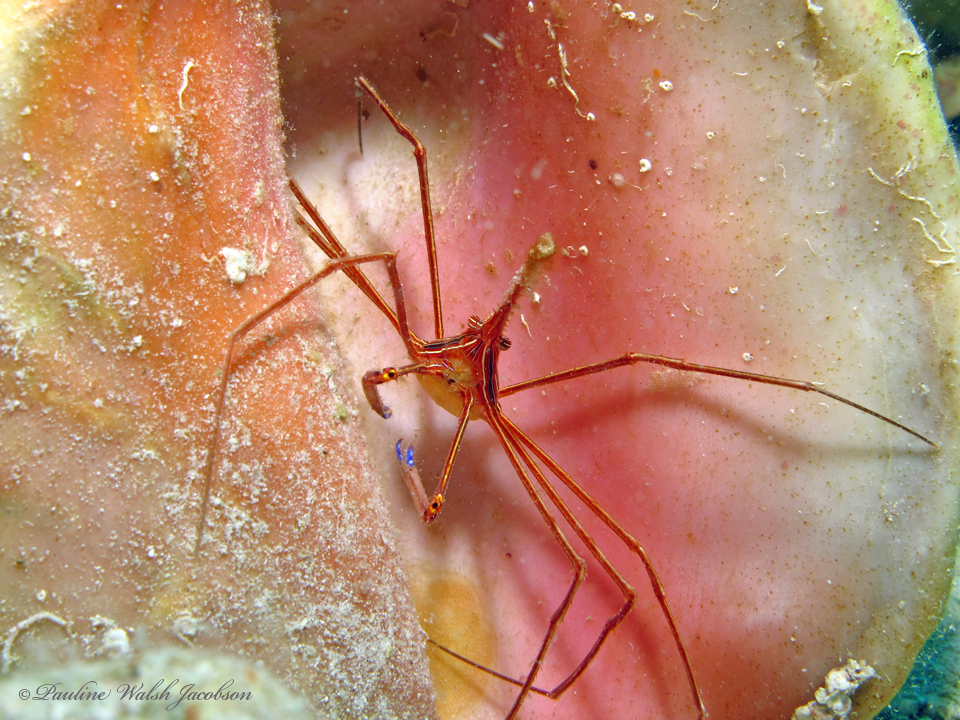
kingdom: Animalia
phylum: Arthropoda
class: Malacostraca
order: Decapoda
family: Inachoididae
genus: Stenorhynchus
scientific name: Stenorhynchus seticornis
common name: Arrow crab
